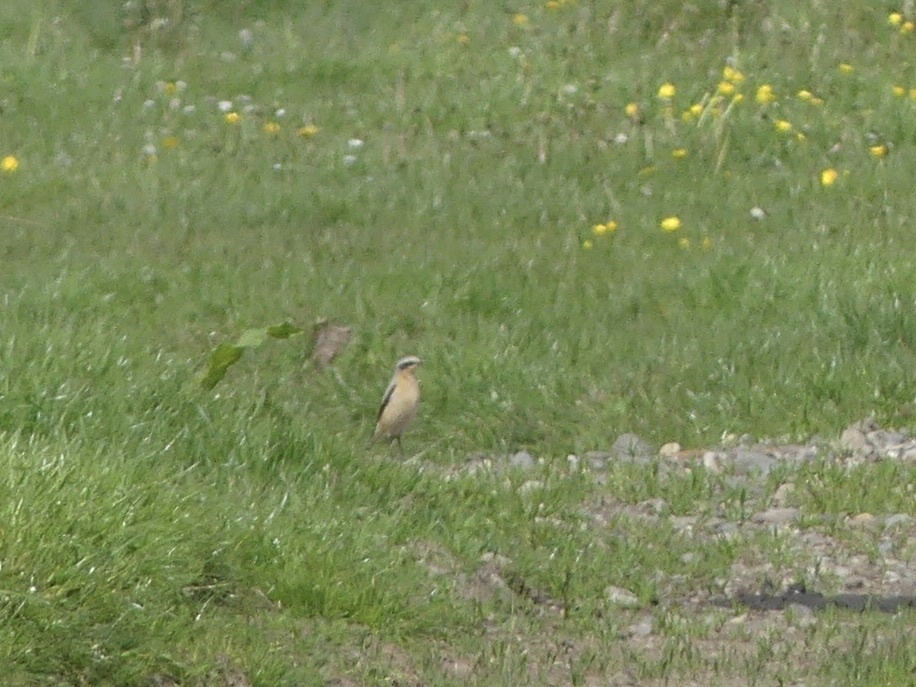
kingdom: Animalia
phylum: Chordata
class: Aves
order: Passeriformes
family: Muscicapidae
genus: Oenanthe
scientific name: Oenanthe oenanthe
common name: Northern wheatear
